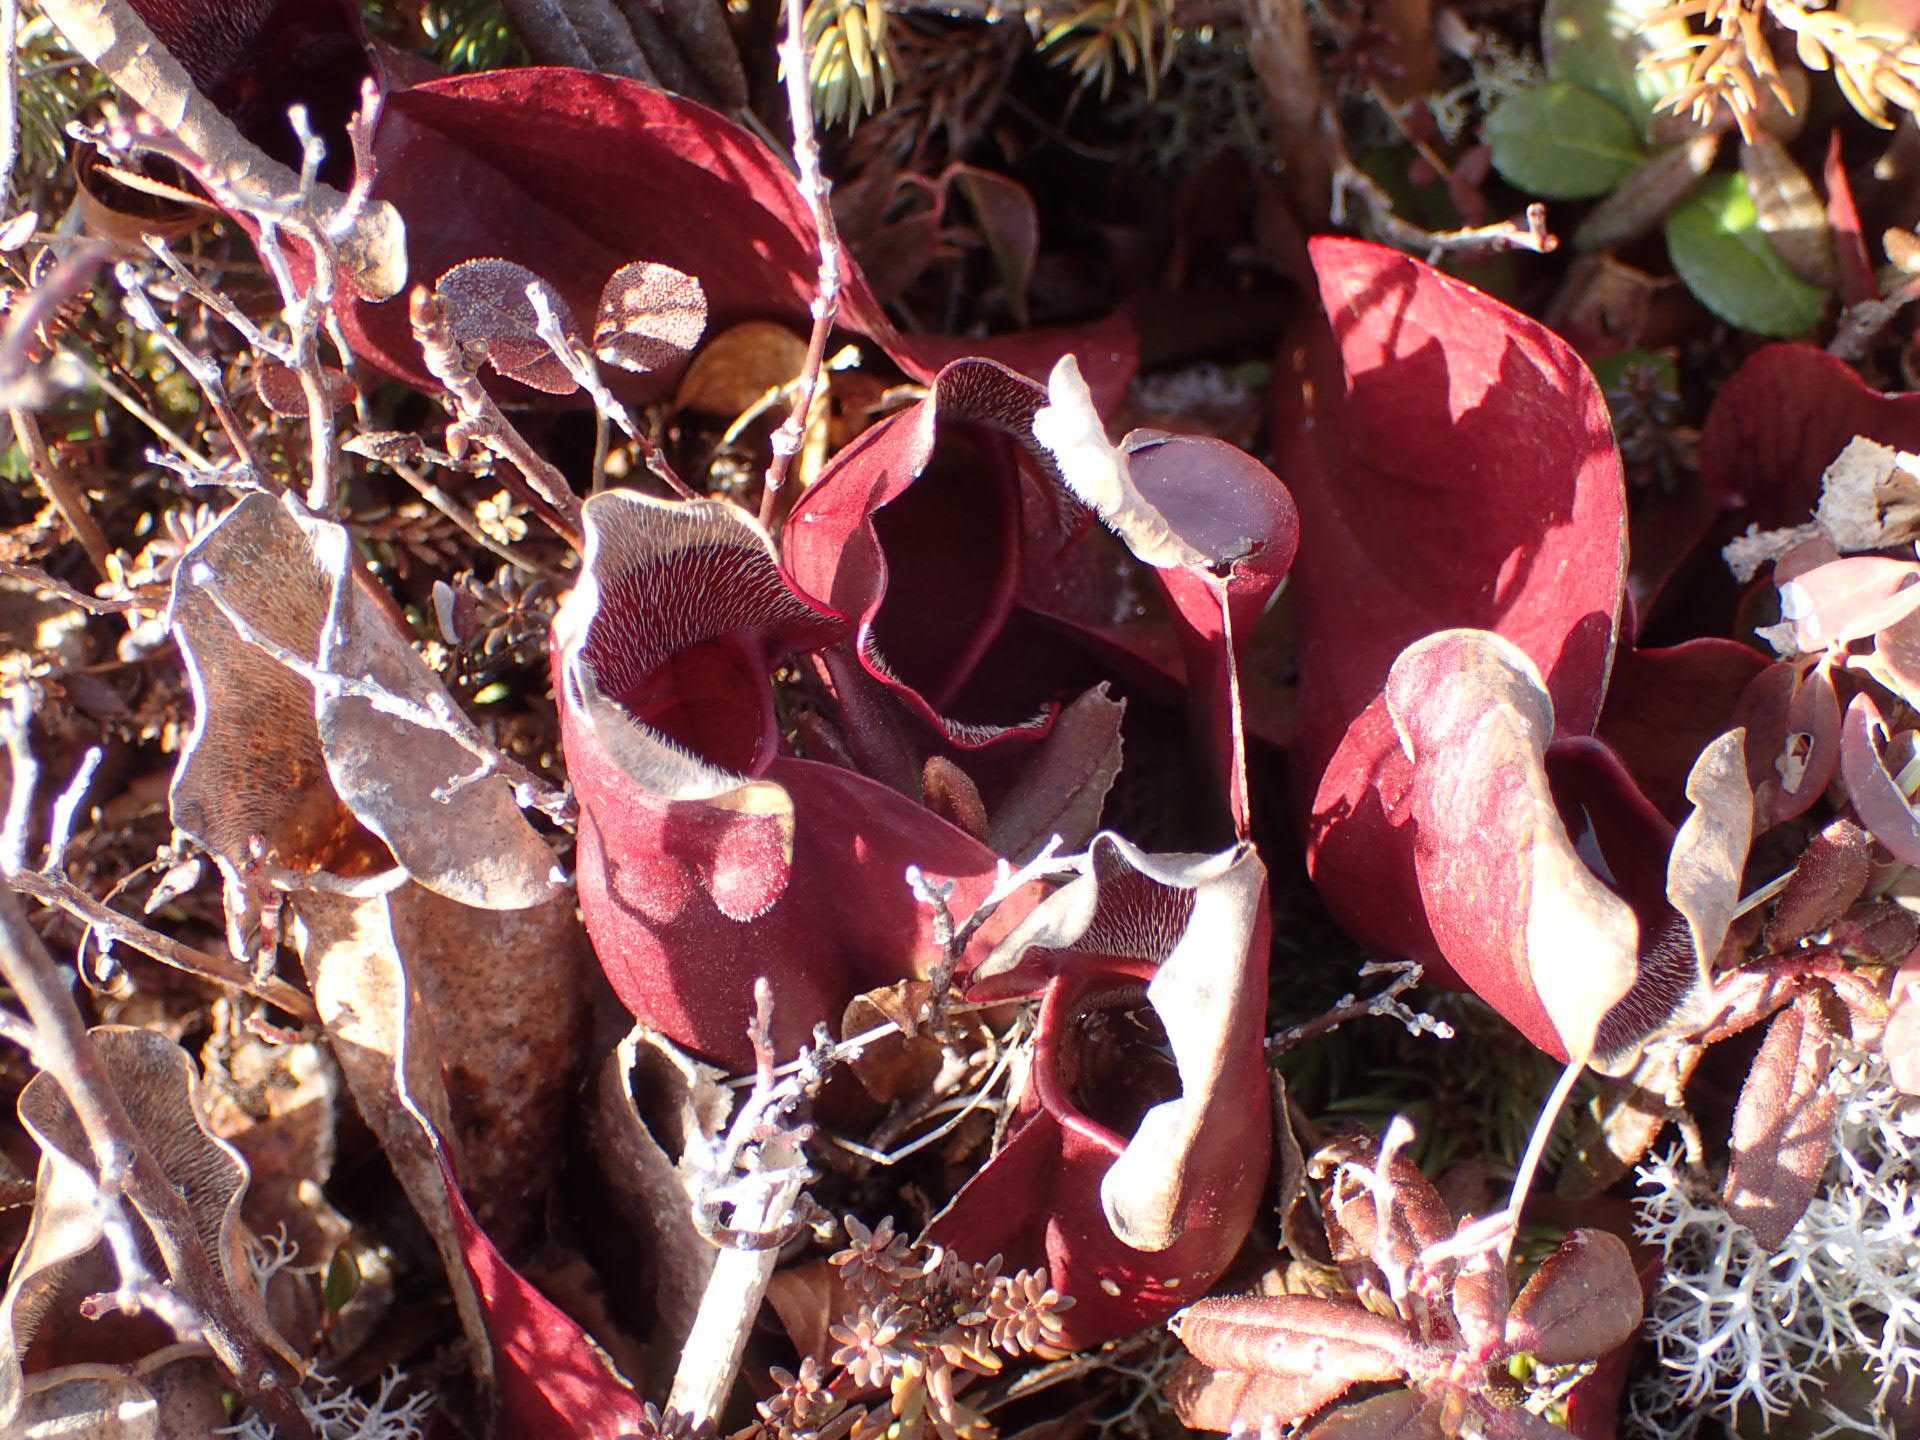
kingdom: Plantae
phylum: Tracheophyta
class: Magnoliopsida
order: Ericales
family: Sarraceniaceae
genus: Sarracenia
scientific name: Sarracenia purpurea
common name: Pitcherplant
